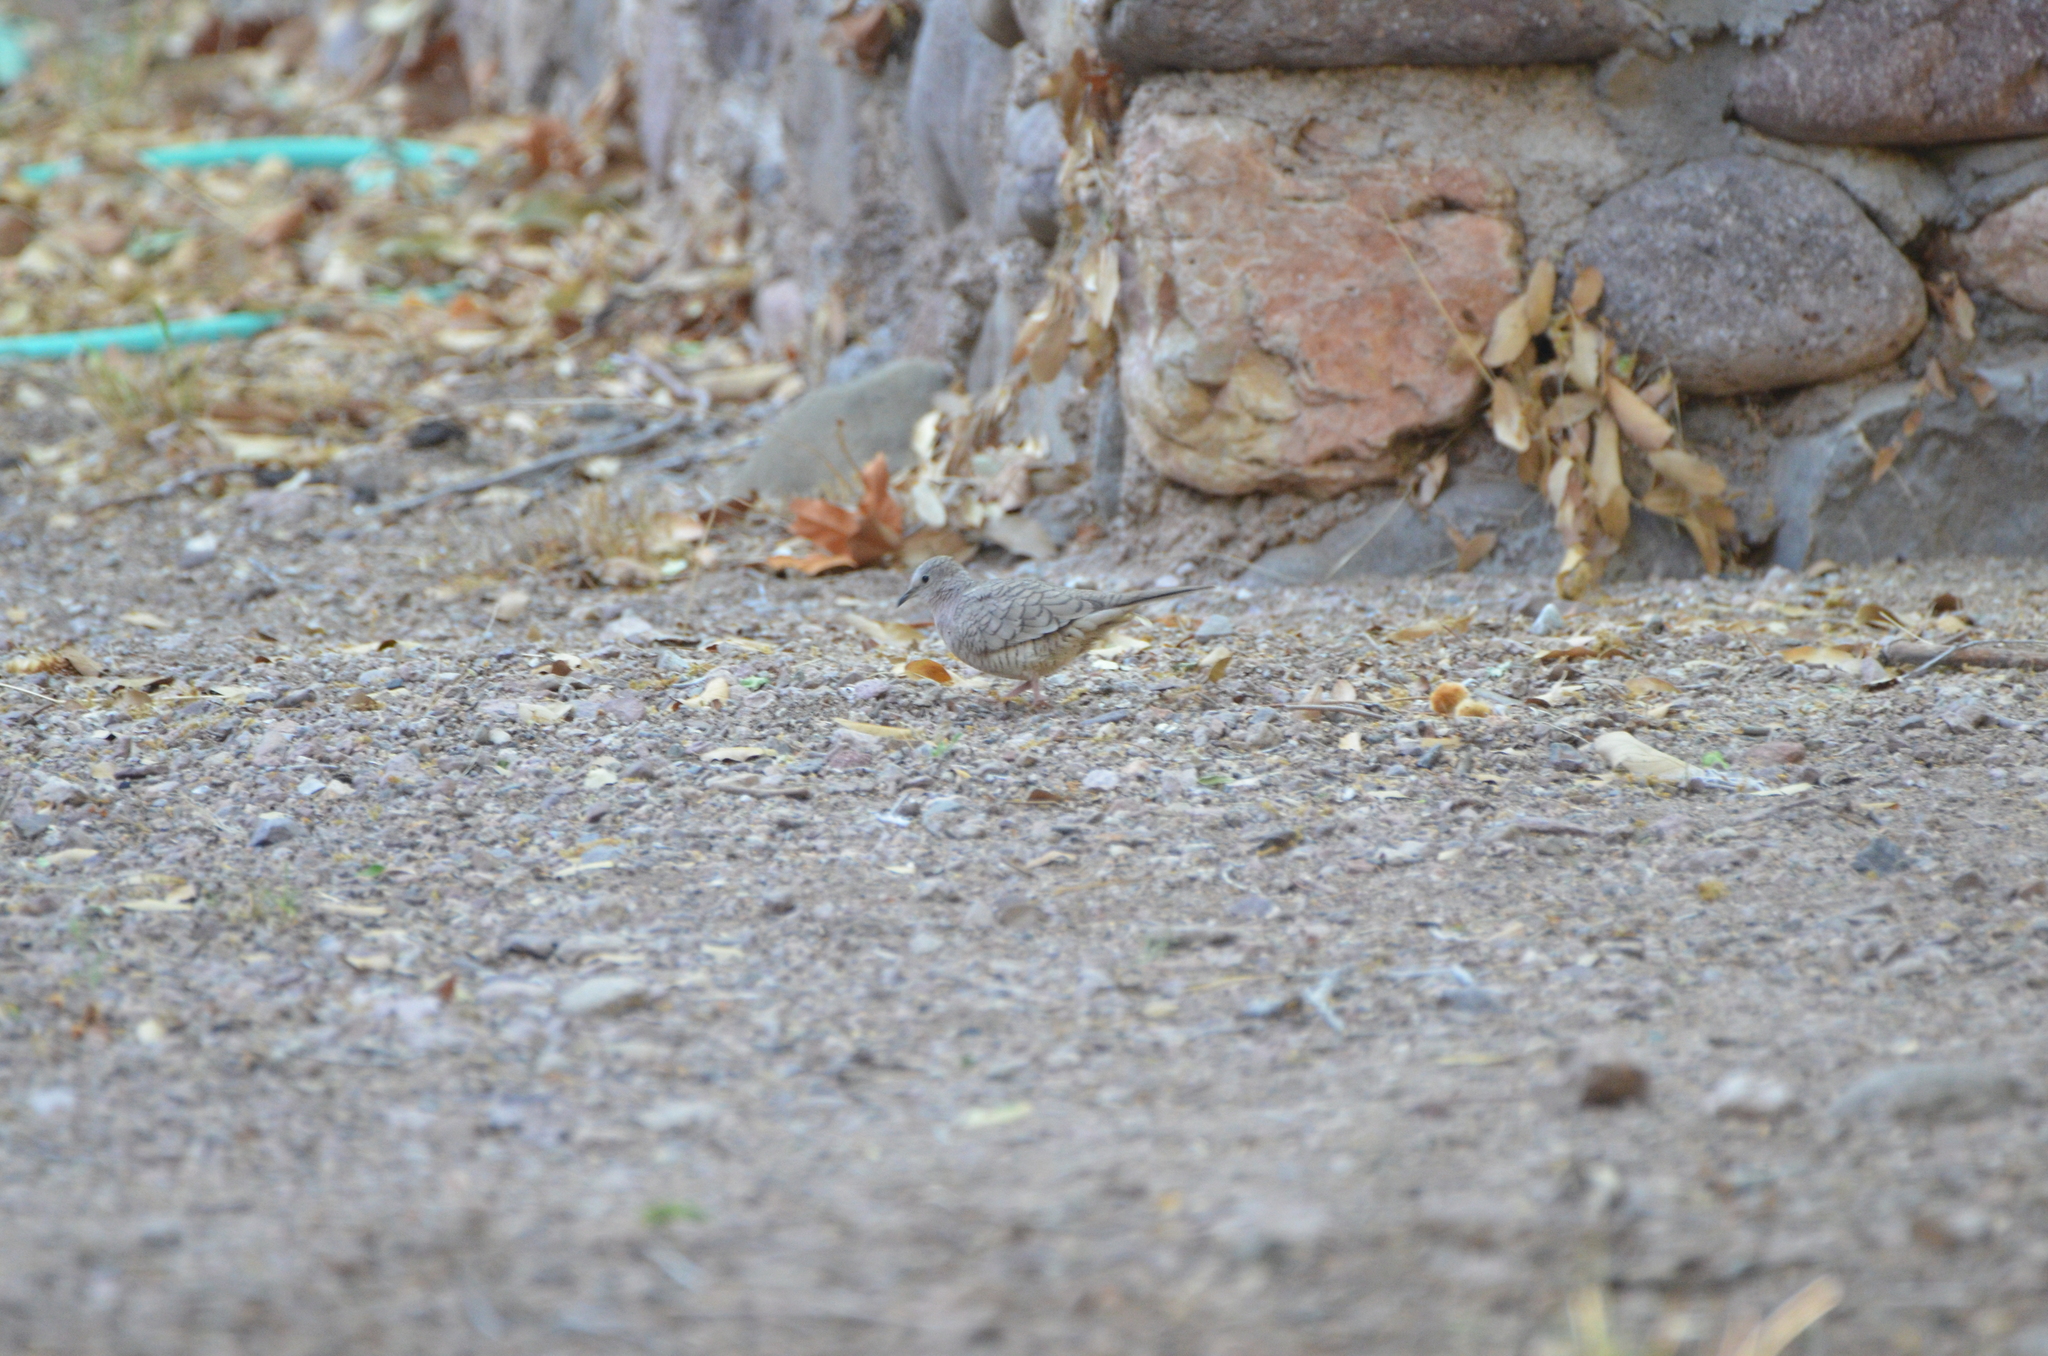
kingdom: Animalia
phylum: Chordata
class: Aves
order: Columbiformes
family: Columbidae
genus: Columbina
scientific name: Columbina inca
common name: Inca dove
